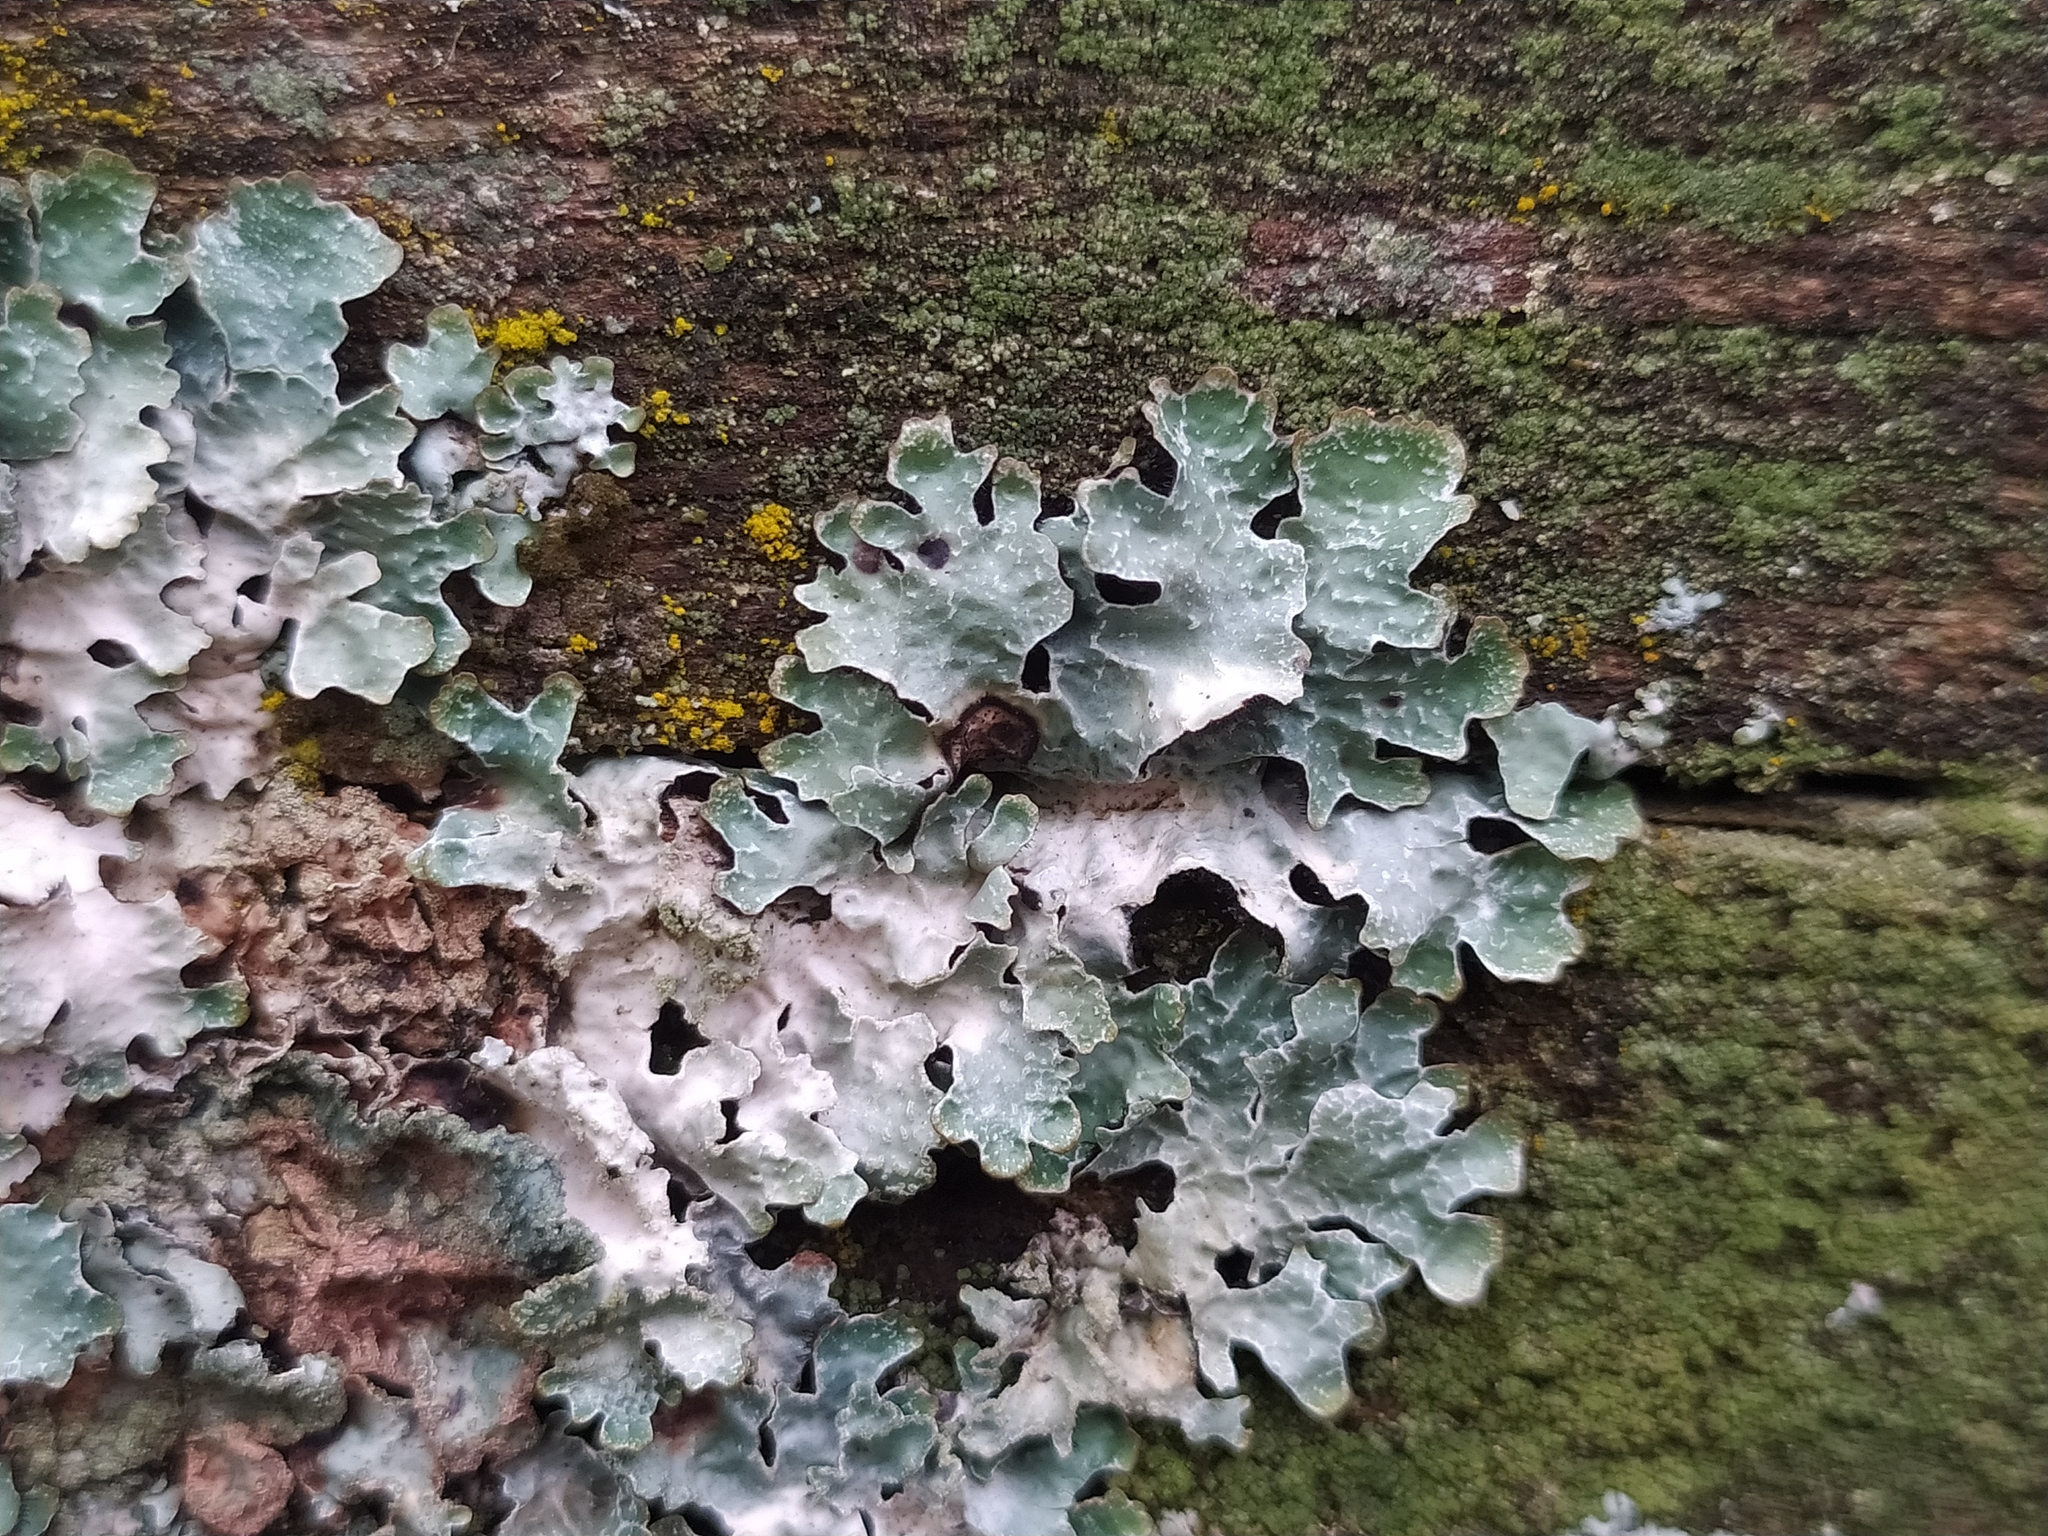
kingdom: Fungi
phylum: Ascomycota
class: Lecanoromycetes
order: Lecanorales
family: Parmeliaceae
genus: Parmelia
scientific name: Parmelia sulcata
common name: Netted shield lichen
